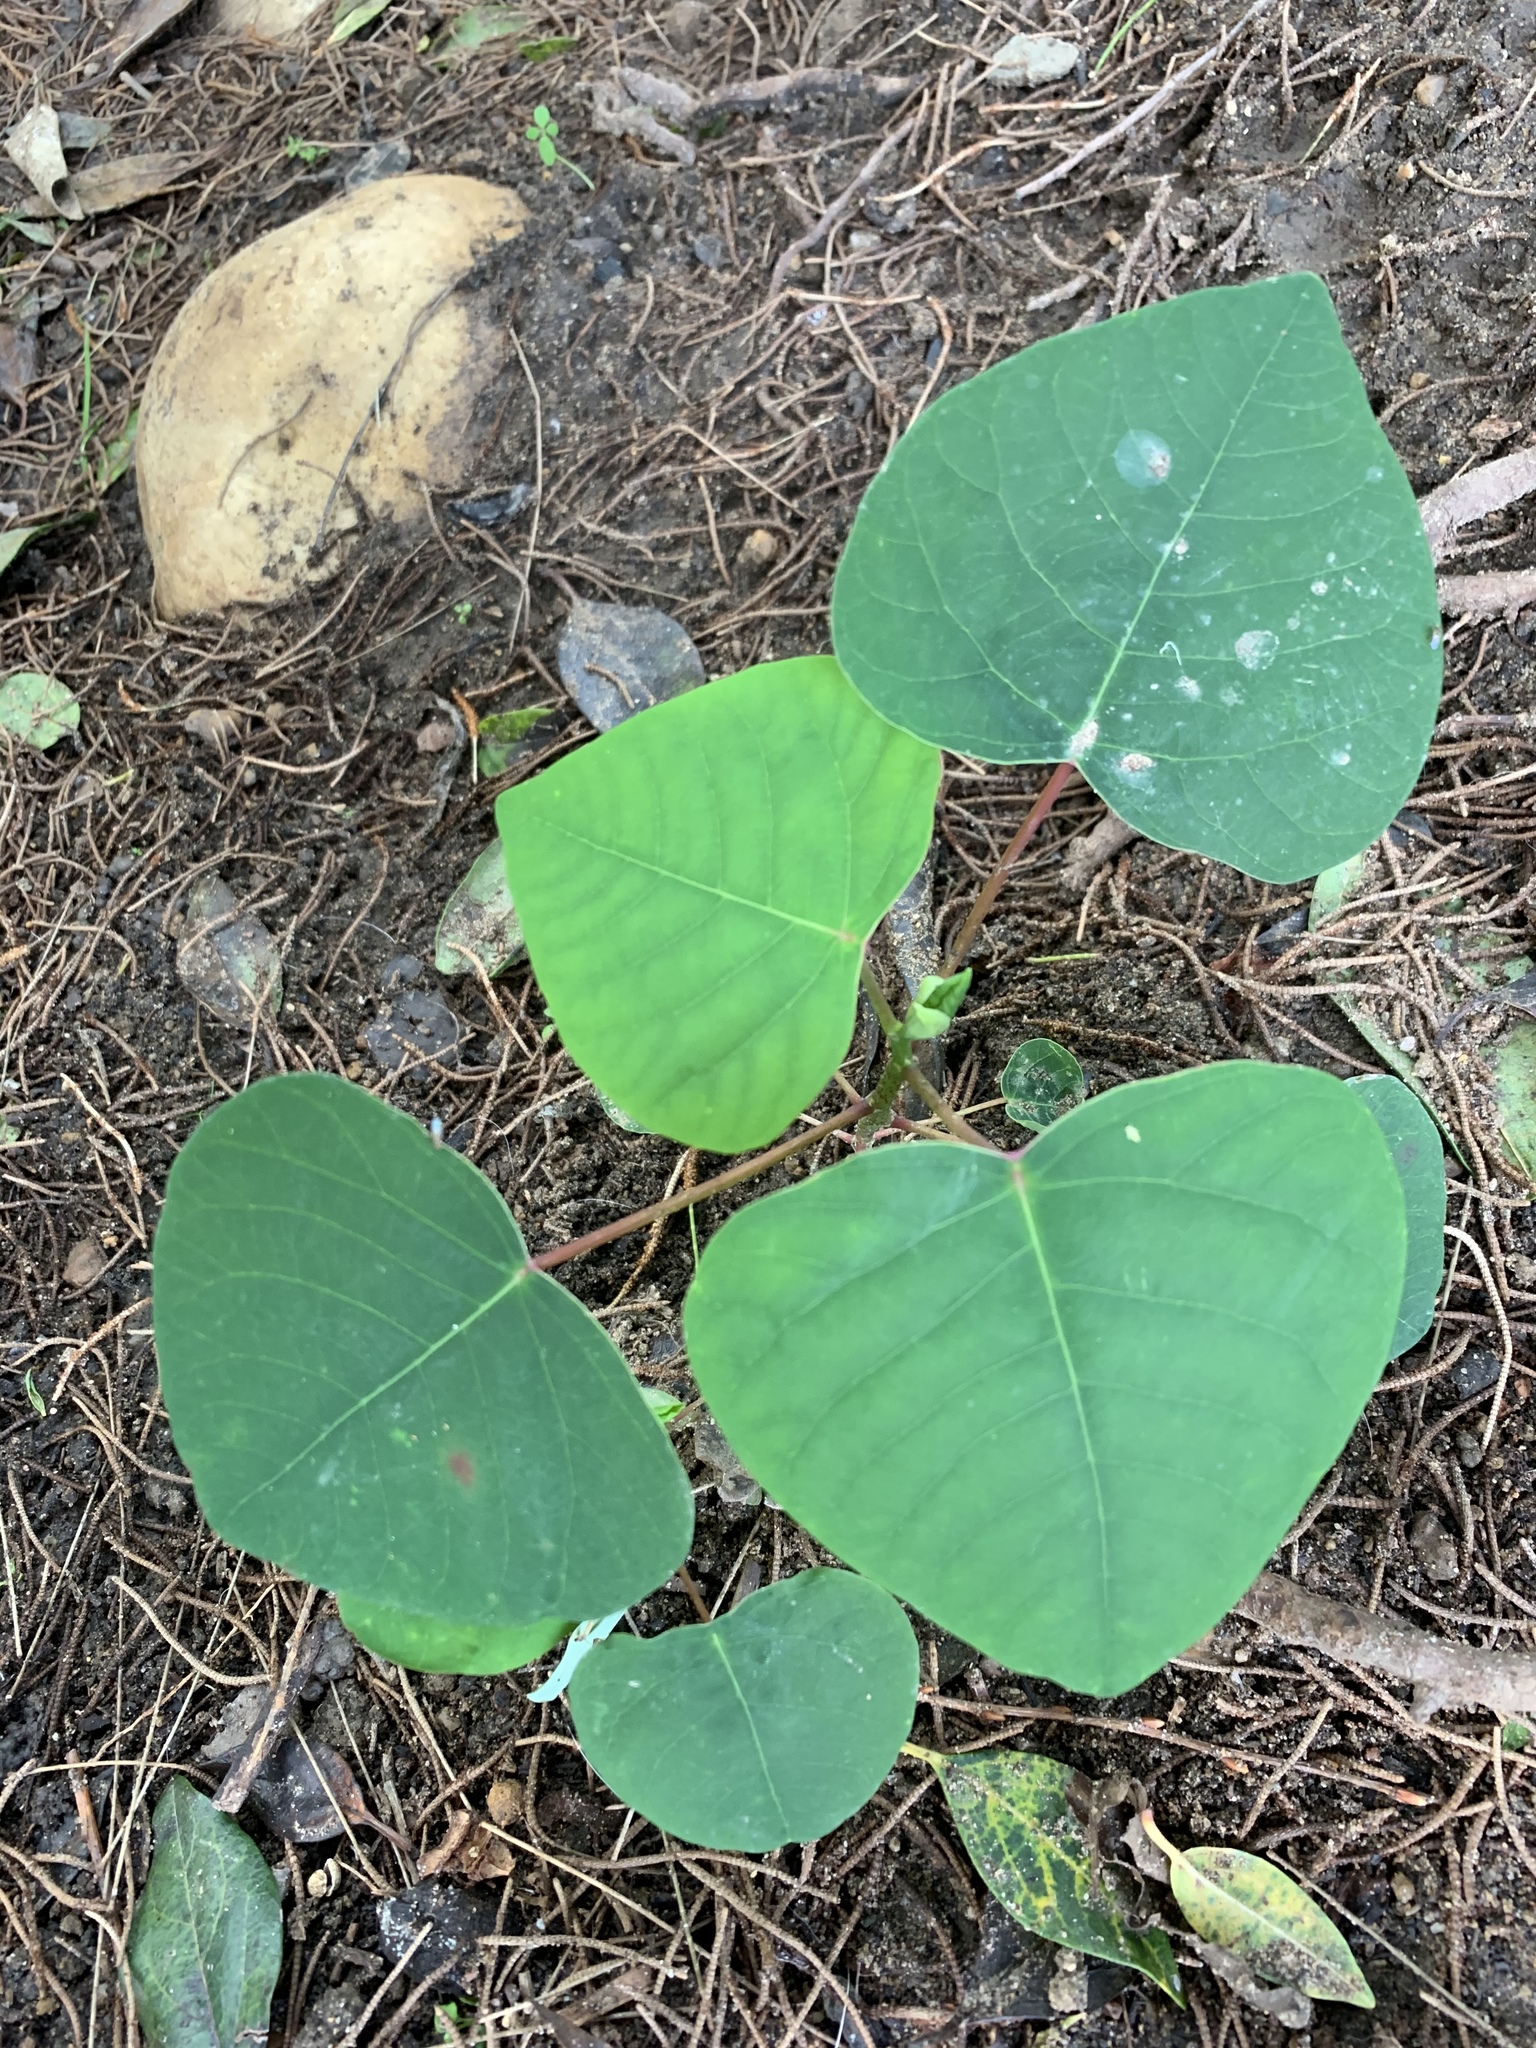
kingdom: Plantae
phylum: Tracheophyta
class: Magnoliopsida
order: Malpighiales
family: Euphorbiaceae
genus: Homalanthus
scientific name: Homalanthus populifolius
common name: Queensland poplar
